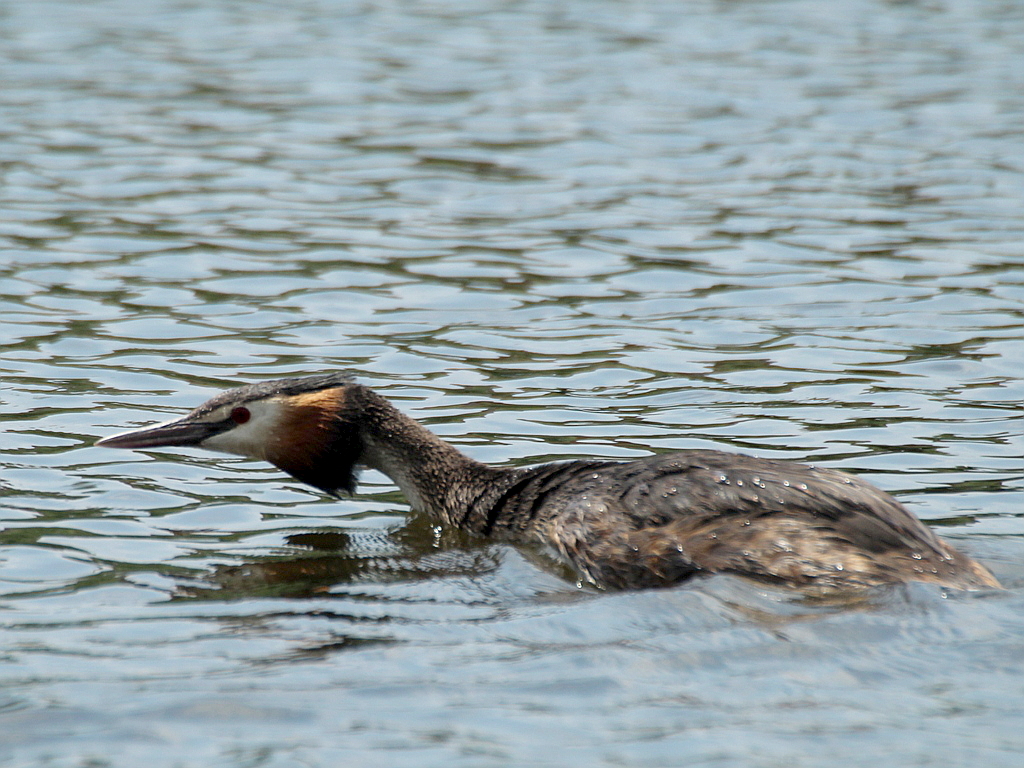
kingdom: Animalia
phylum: Chordata
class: Aves
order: Podicipediformes
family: Podicipedidae
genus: Podiceps
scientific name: Podiceps cristatus
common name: Great crested grebe
